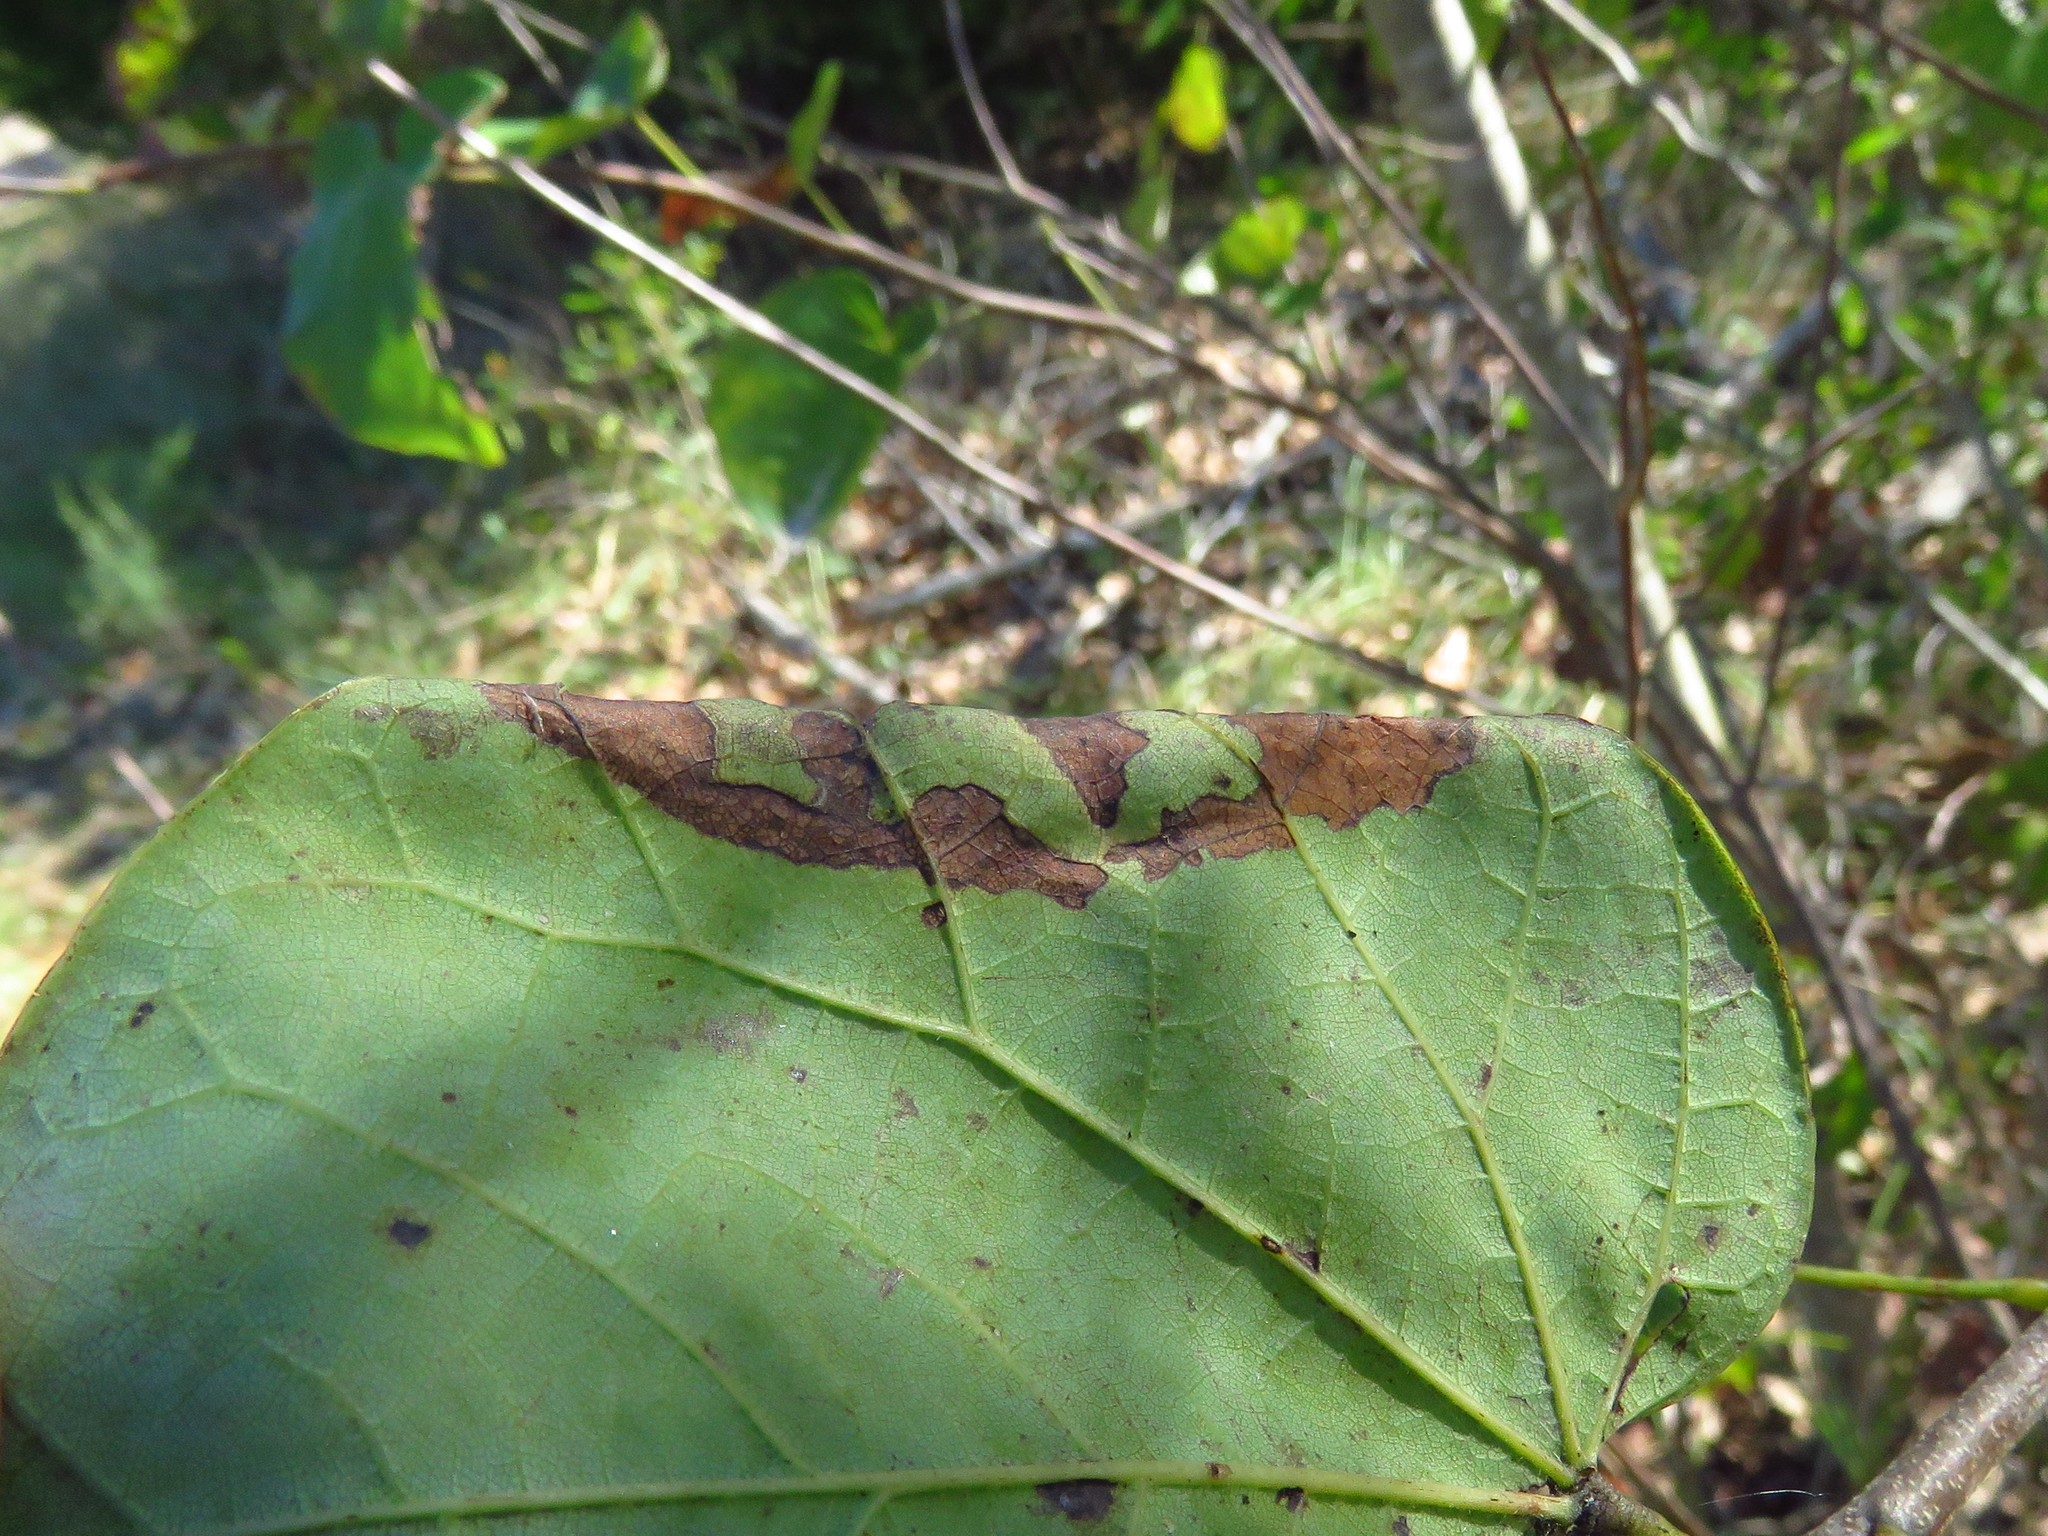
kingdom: Animalia
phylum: Arthropoda
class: Insecta
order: Lepidoptera
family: Gelechiidae
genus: Fascista
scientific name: Fascista cercerisella
